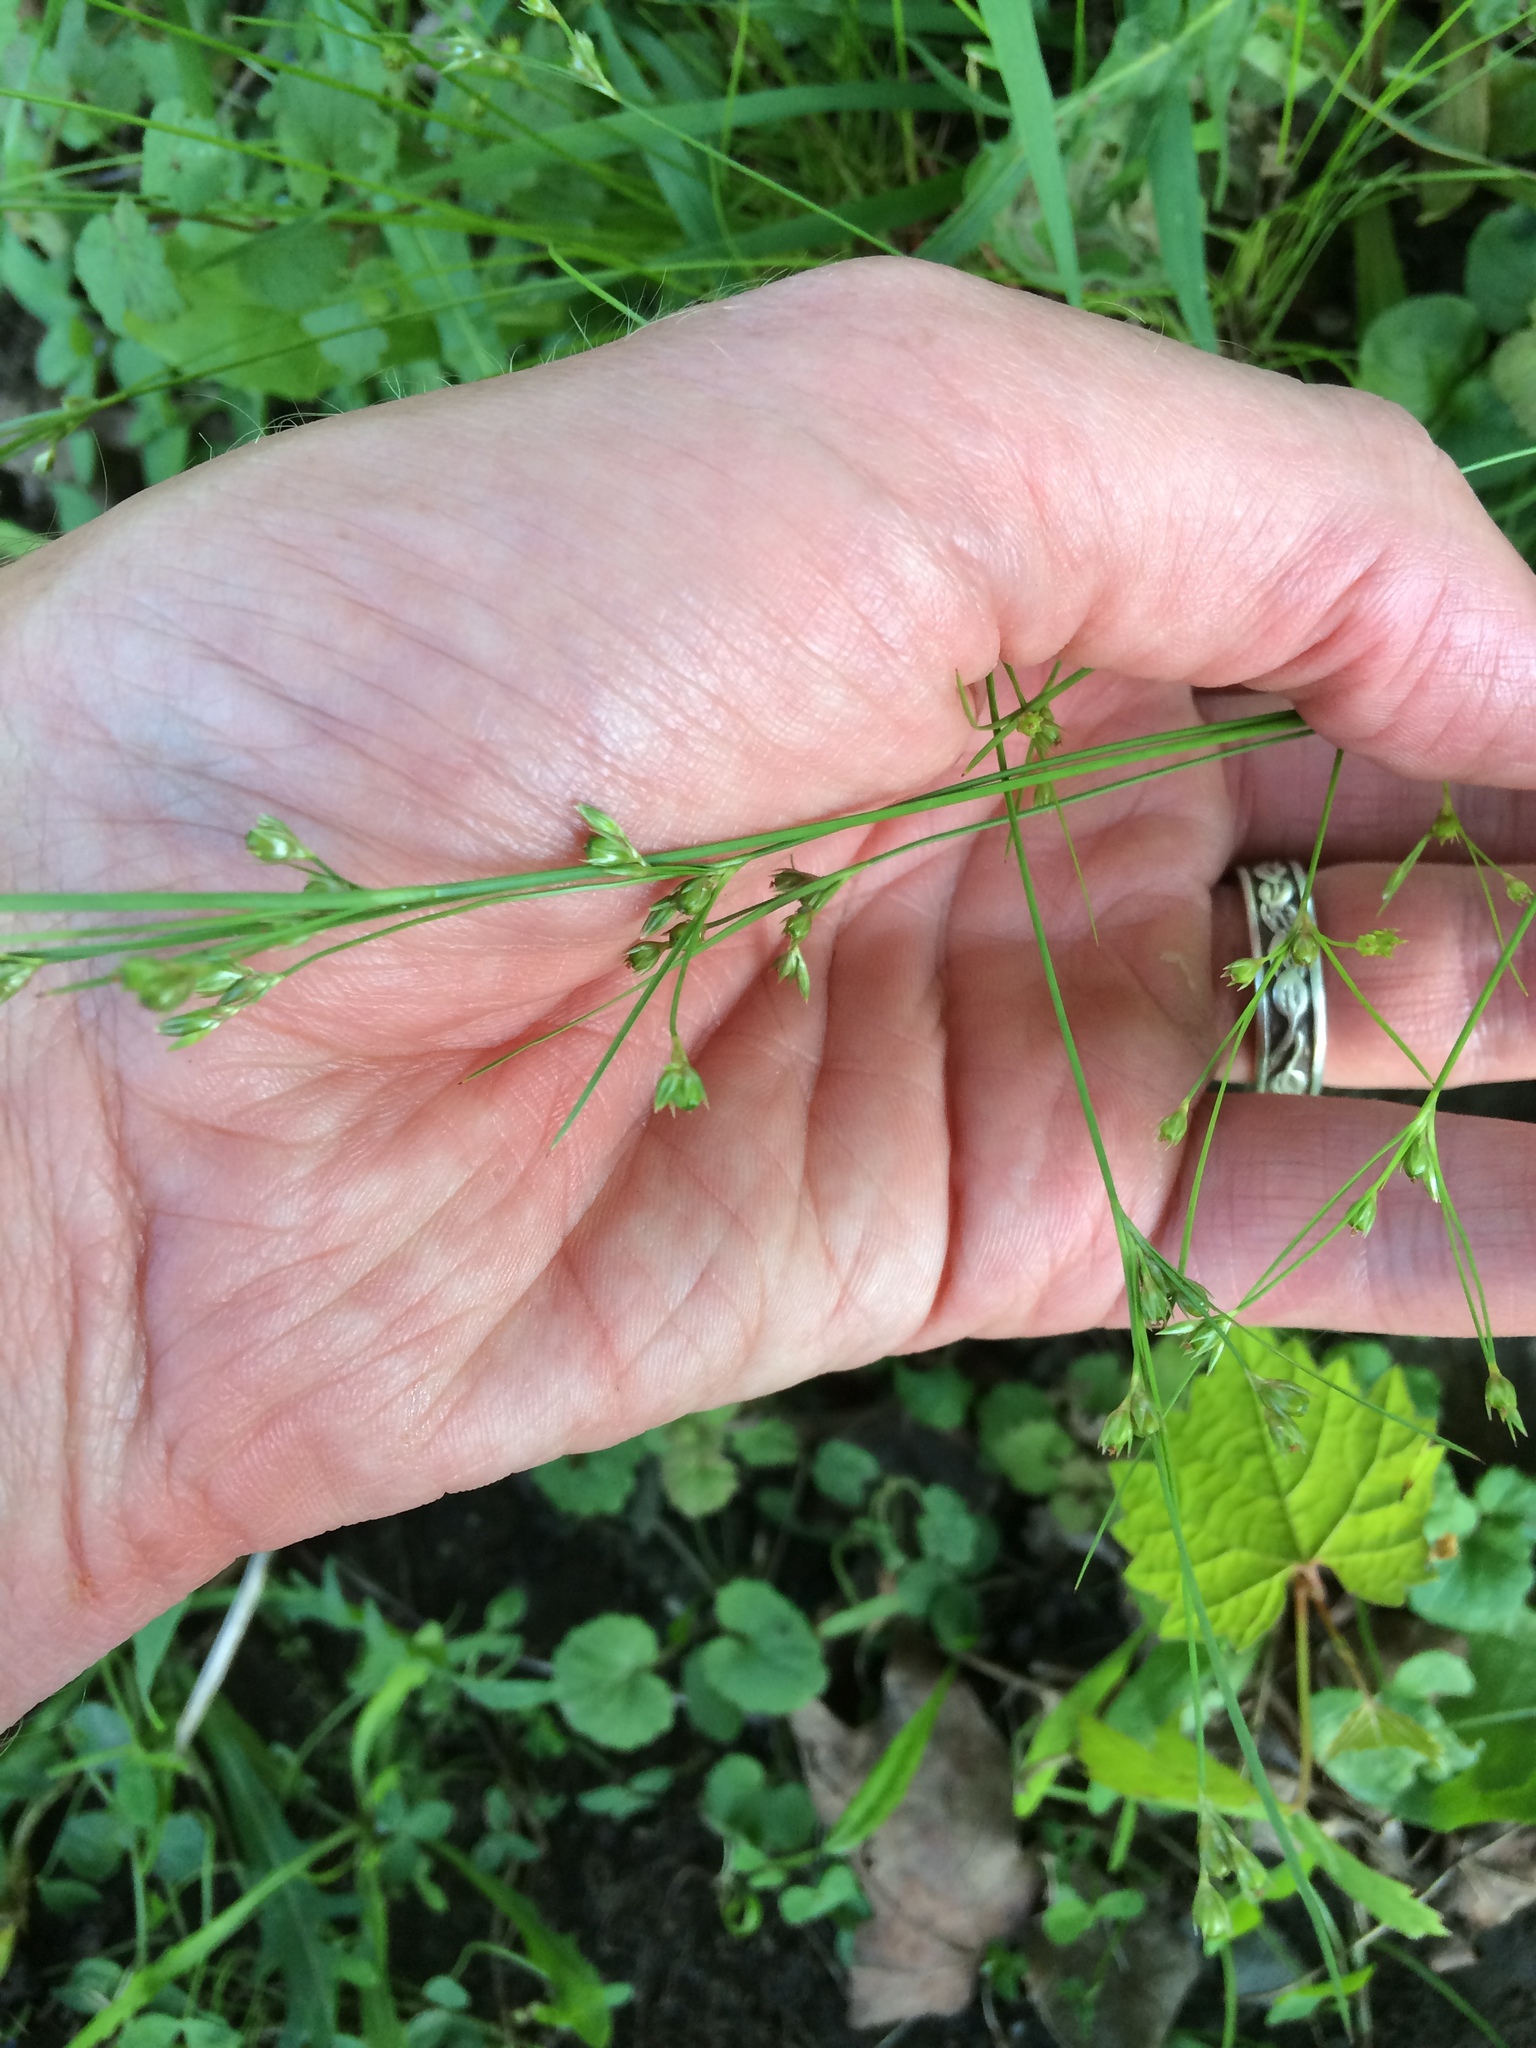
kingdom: Plantae
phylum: Tracheophyta
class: Liliopsida
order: Poales
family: Juncaceae
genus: Juncus
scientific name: Juncus tenuis
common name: Slender rush
